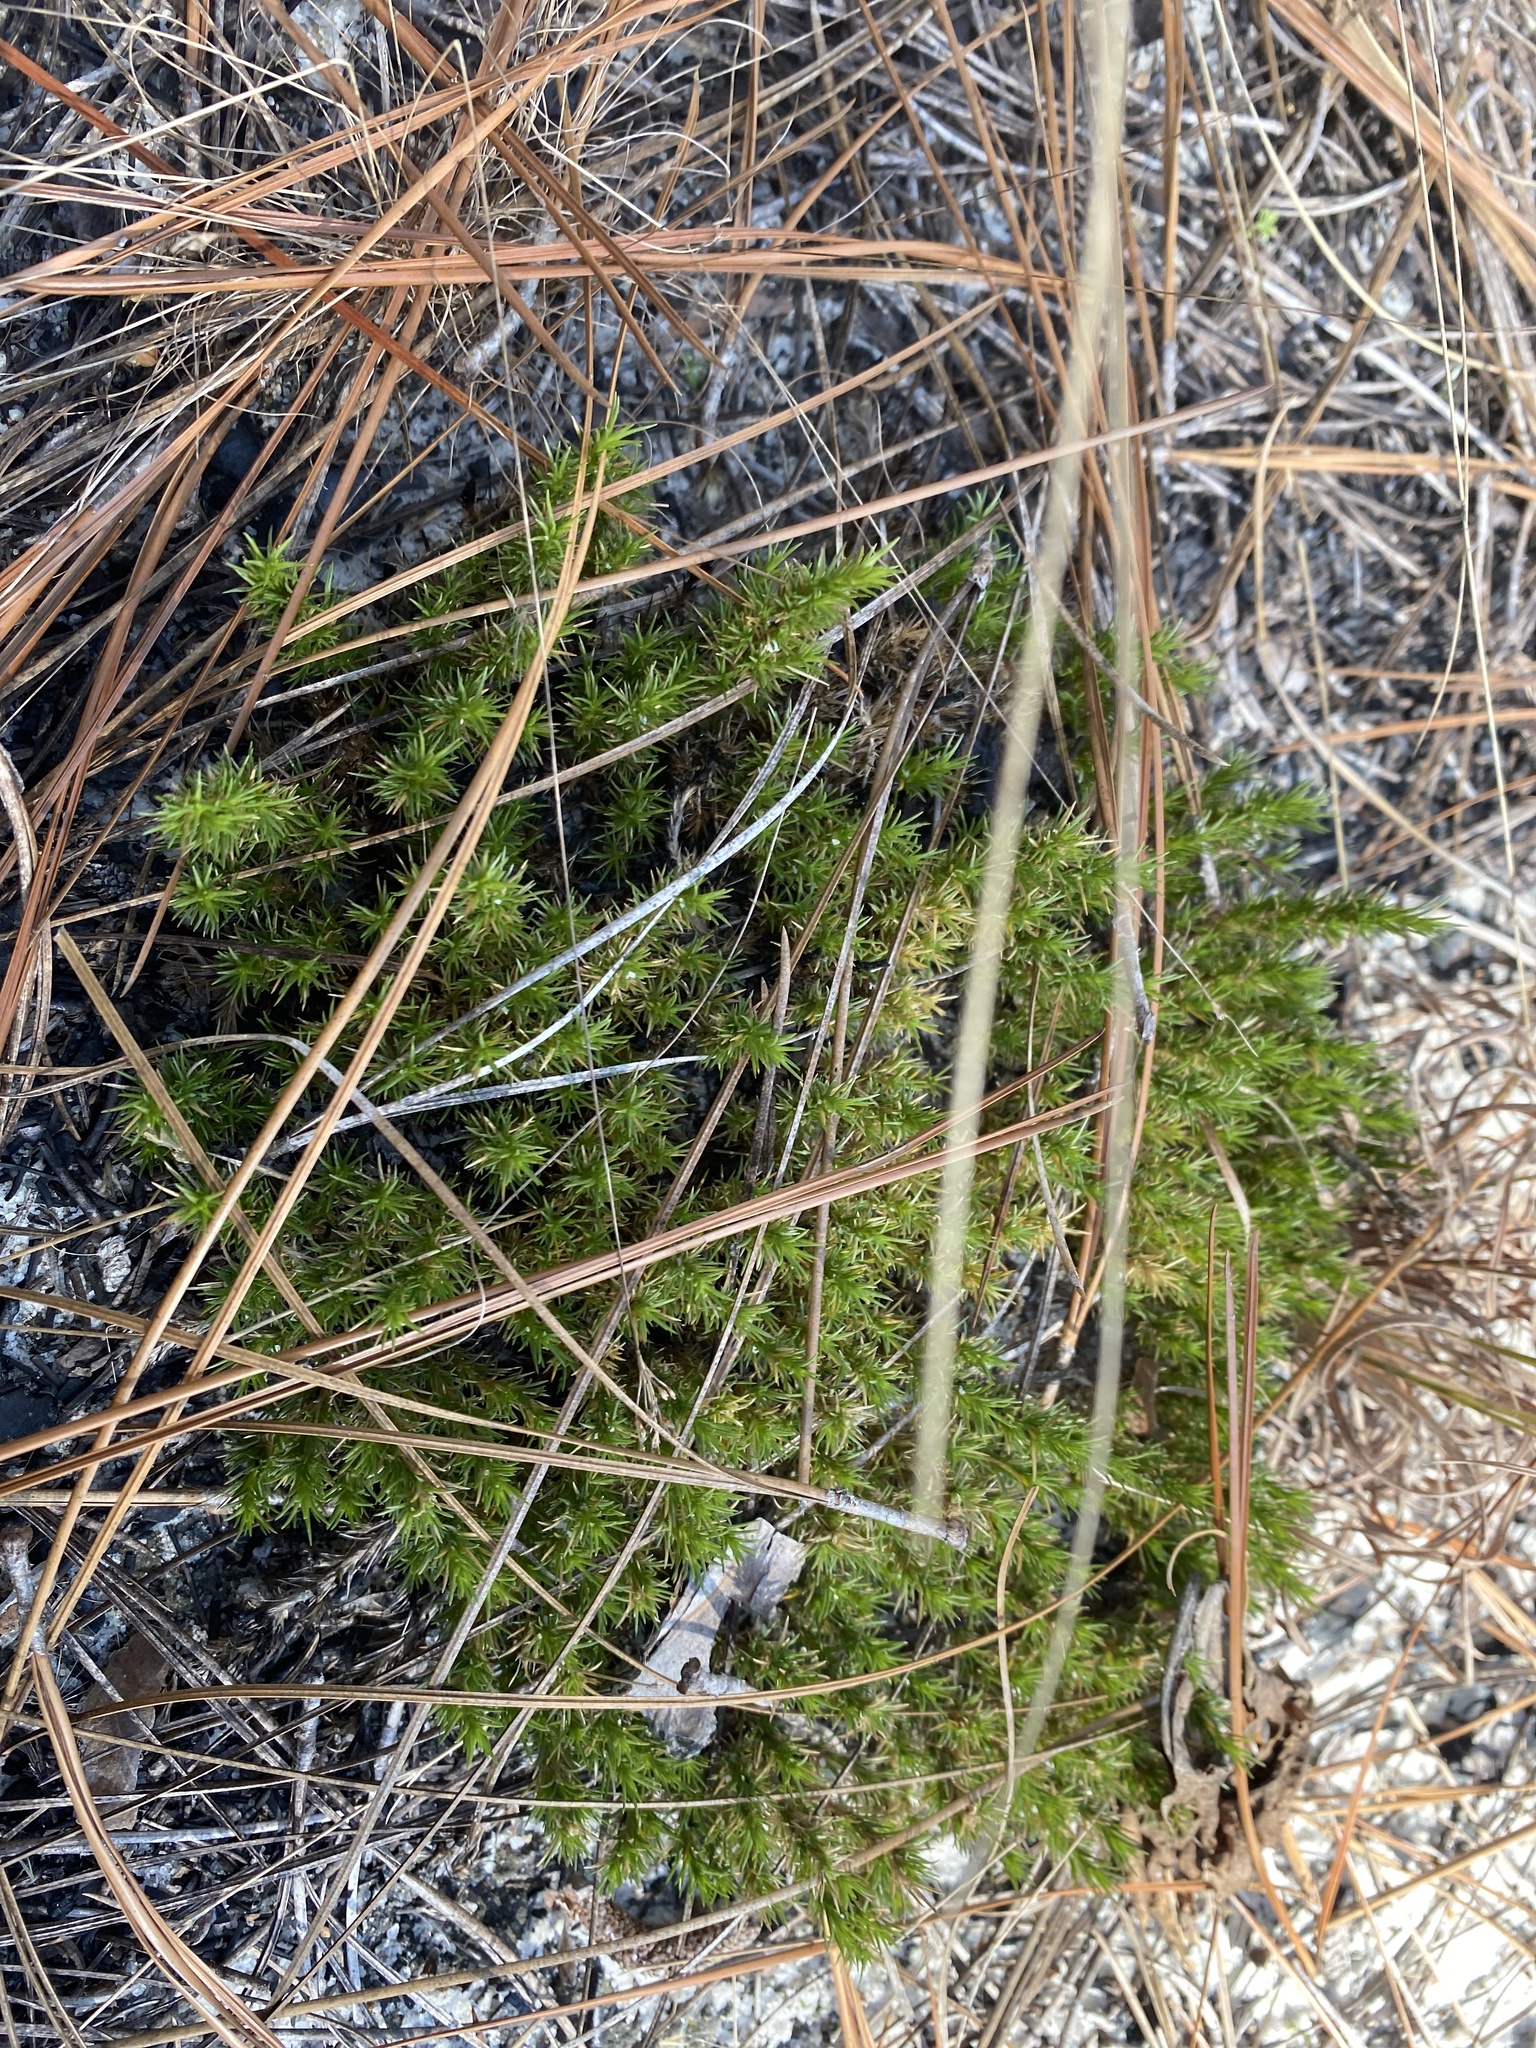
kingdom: Plantae
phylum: Tracheophyta
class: Magnoliopsida
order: Caryophyllales
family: Caryophyllaceae
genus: Geocarpon
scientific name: Geocarpon carolinianum
